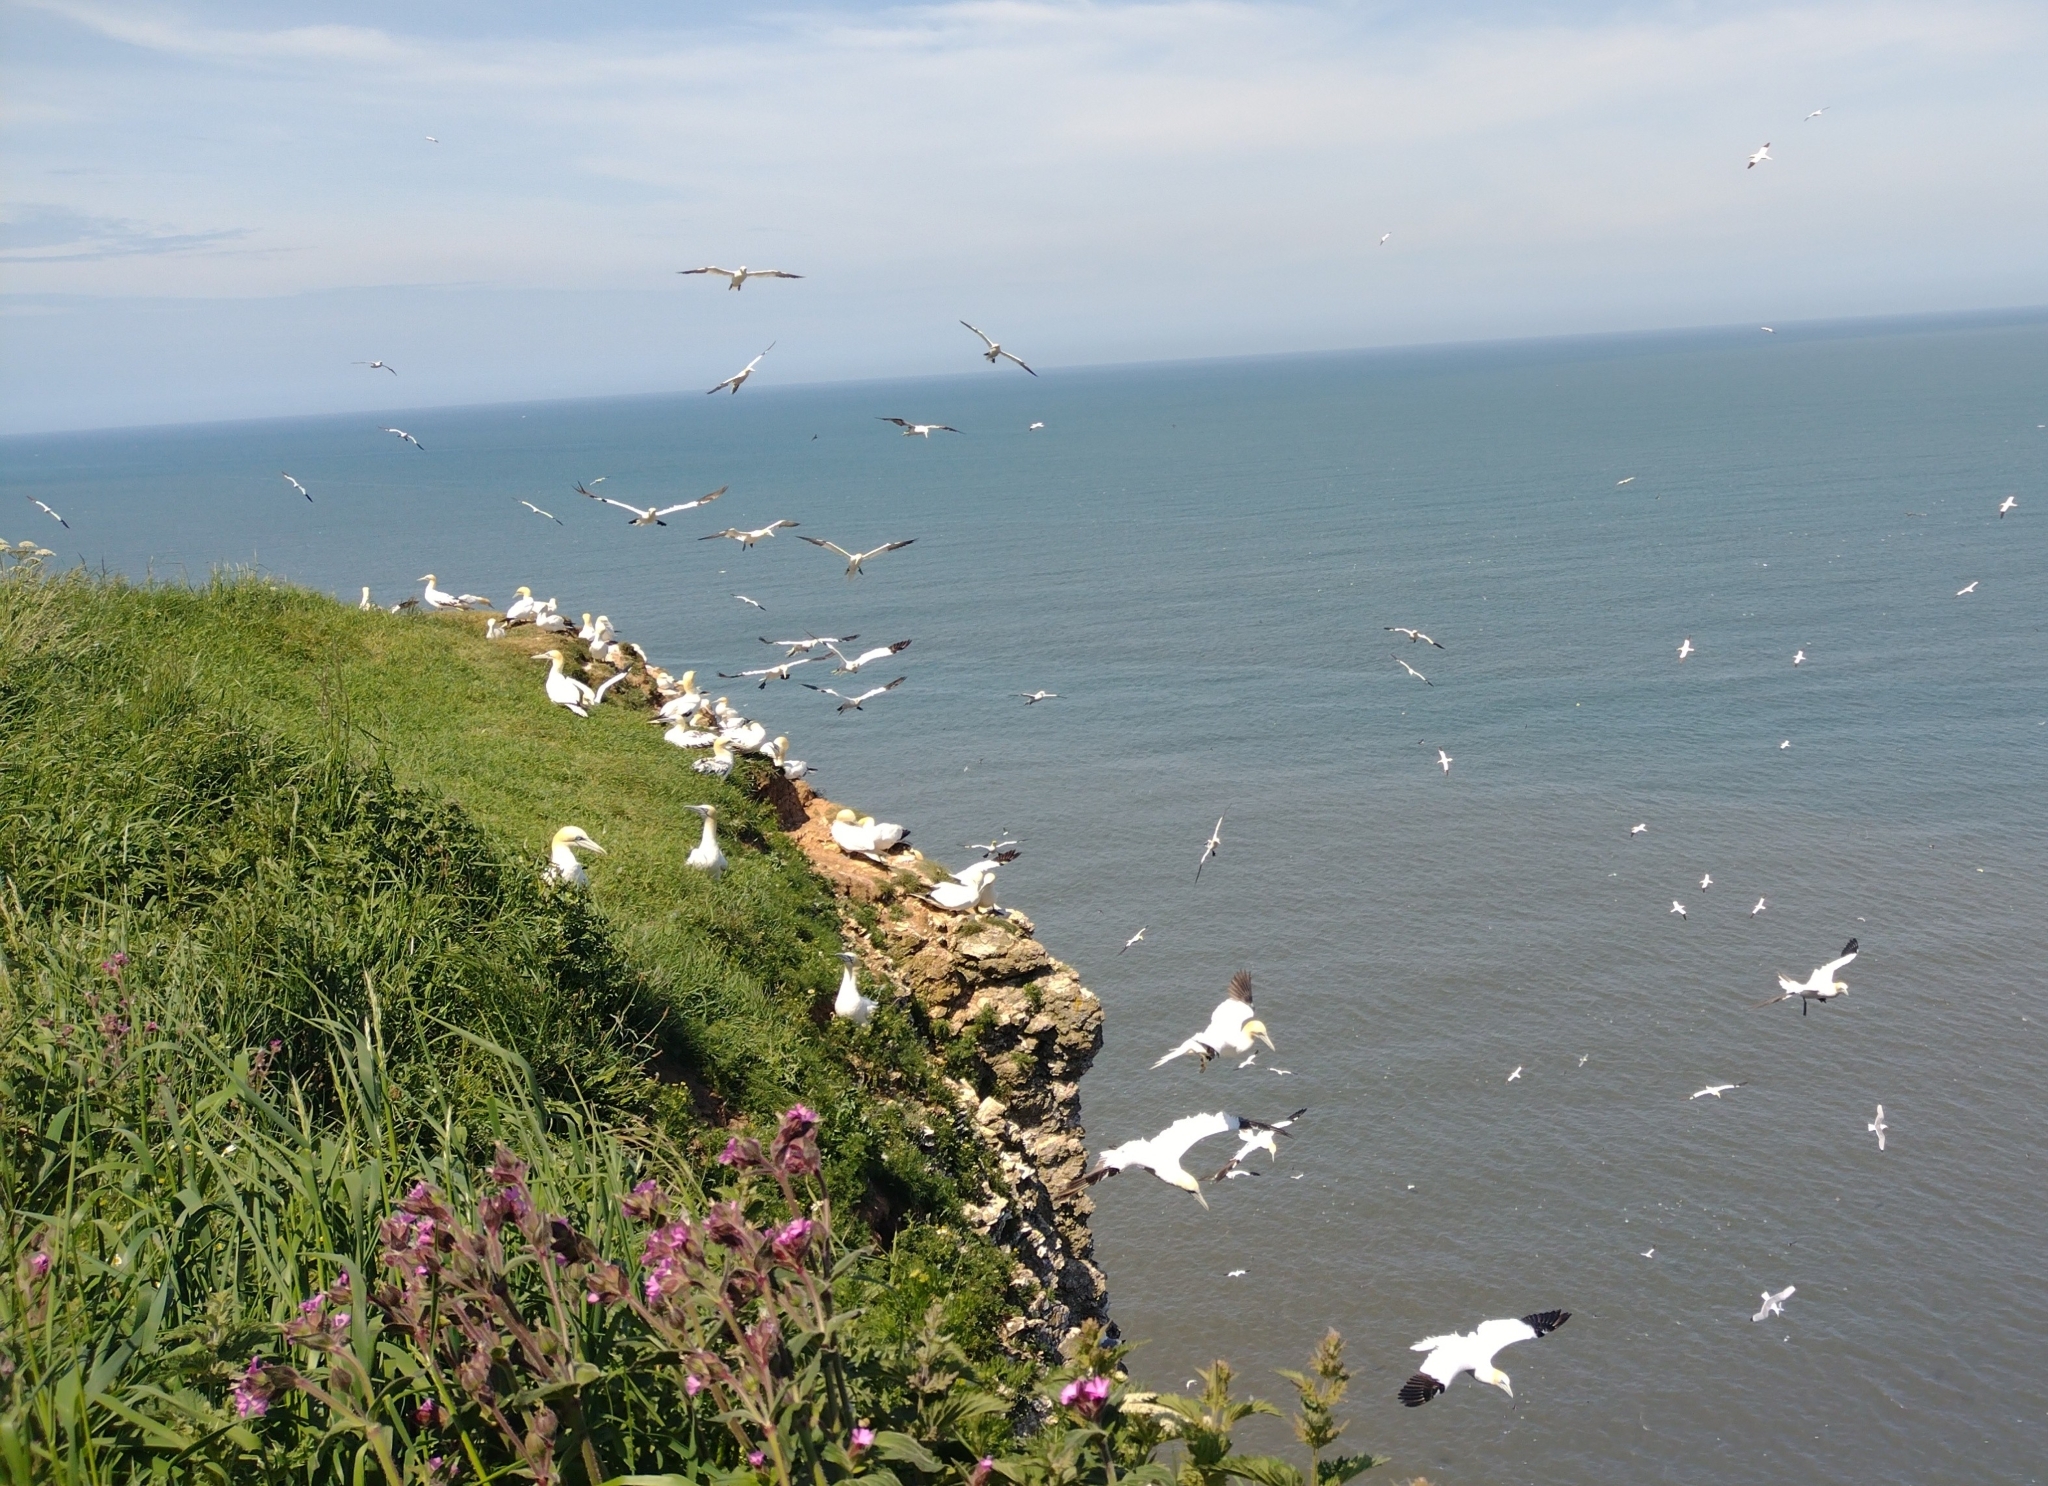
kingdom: Animalia
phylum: Chordata
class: Aves
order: Suliformes
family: Sulidae
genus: Morus
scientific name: Morus bassanus
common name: Northern gannet
